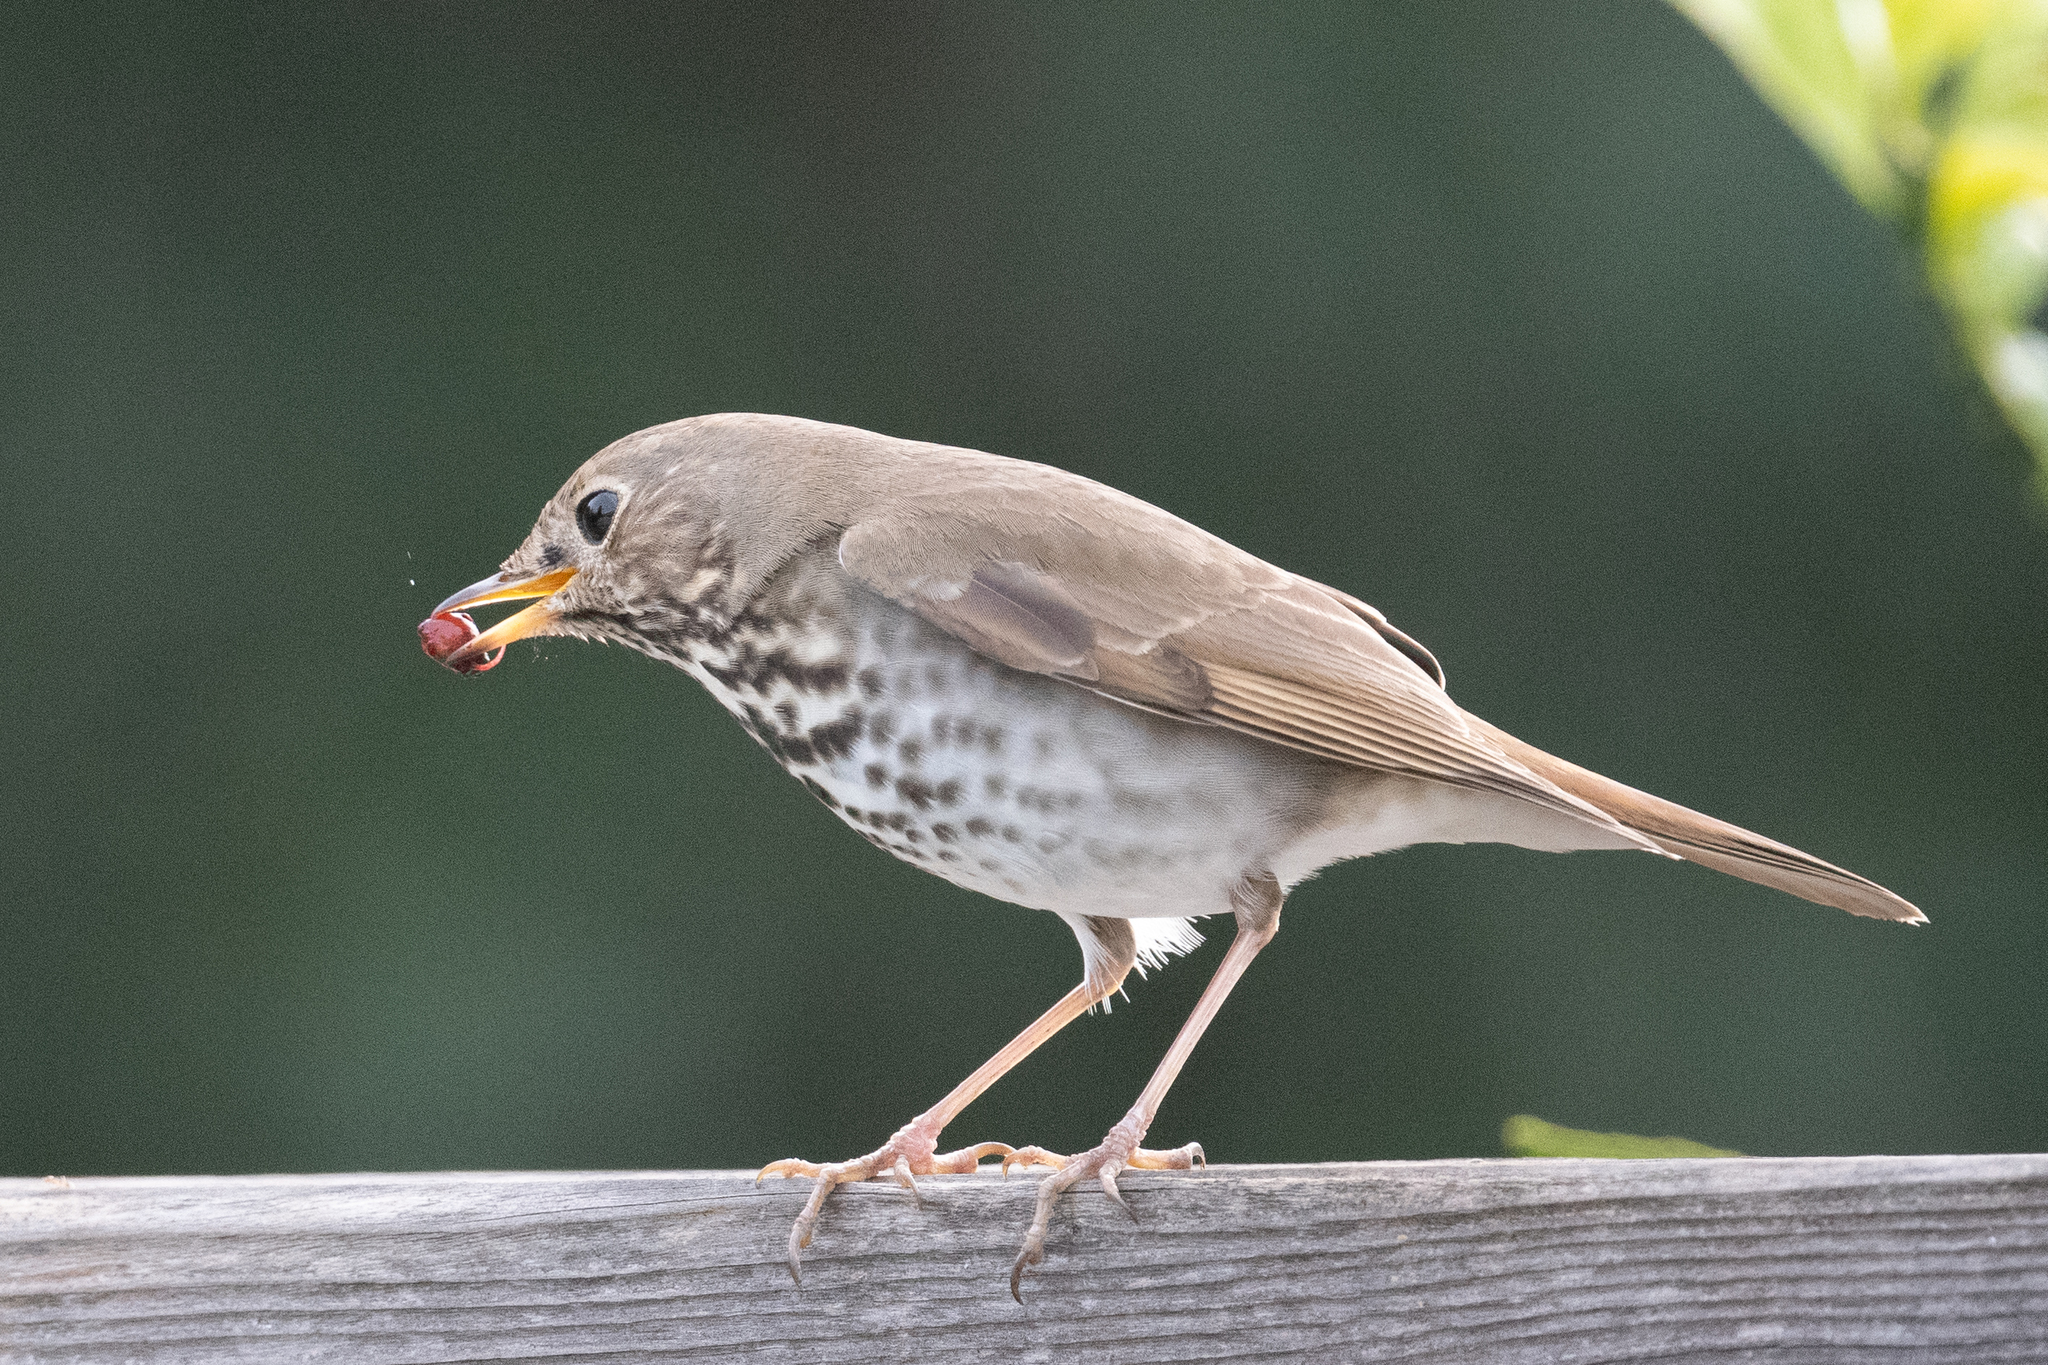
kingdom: Animalia
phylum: Chordata
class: Aves
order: Passeriformes
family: Turdidae
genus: Catharus
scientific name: Catharus guttatus
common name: Hermit thrush
